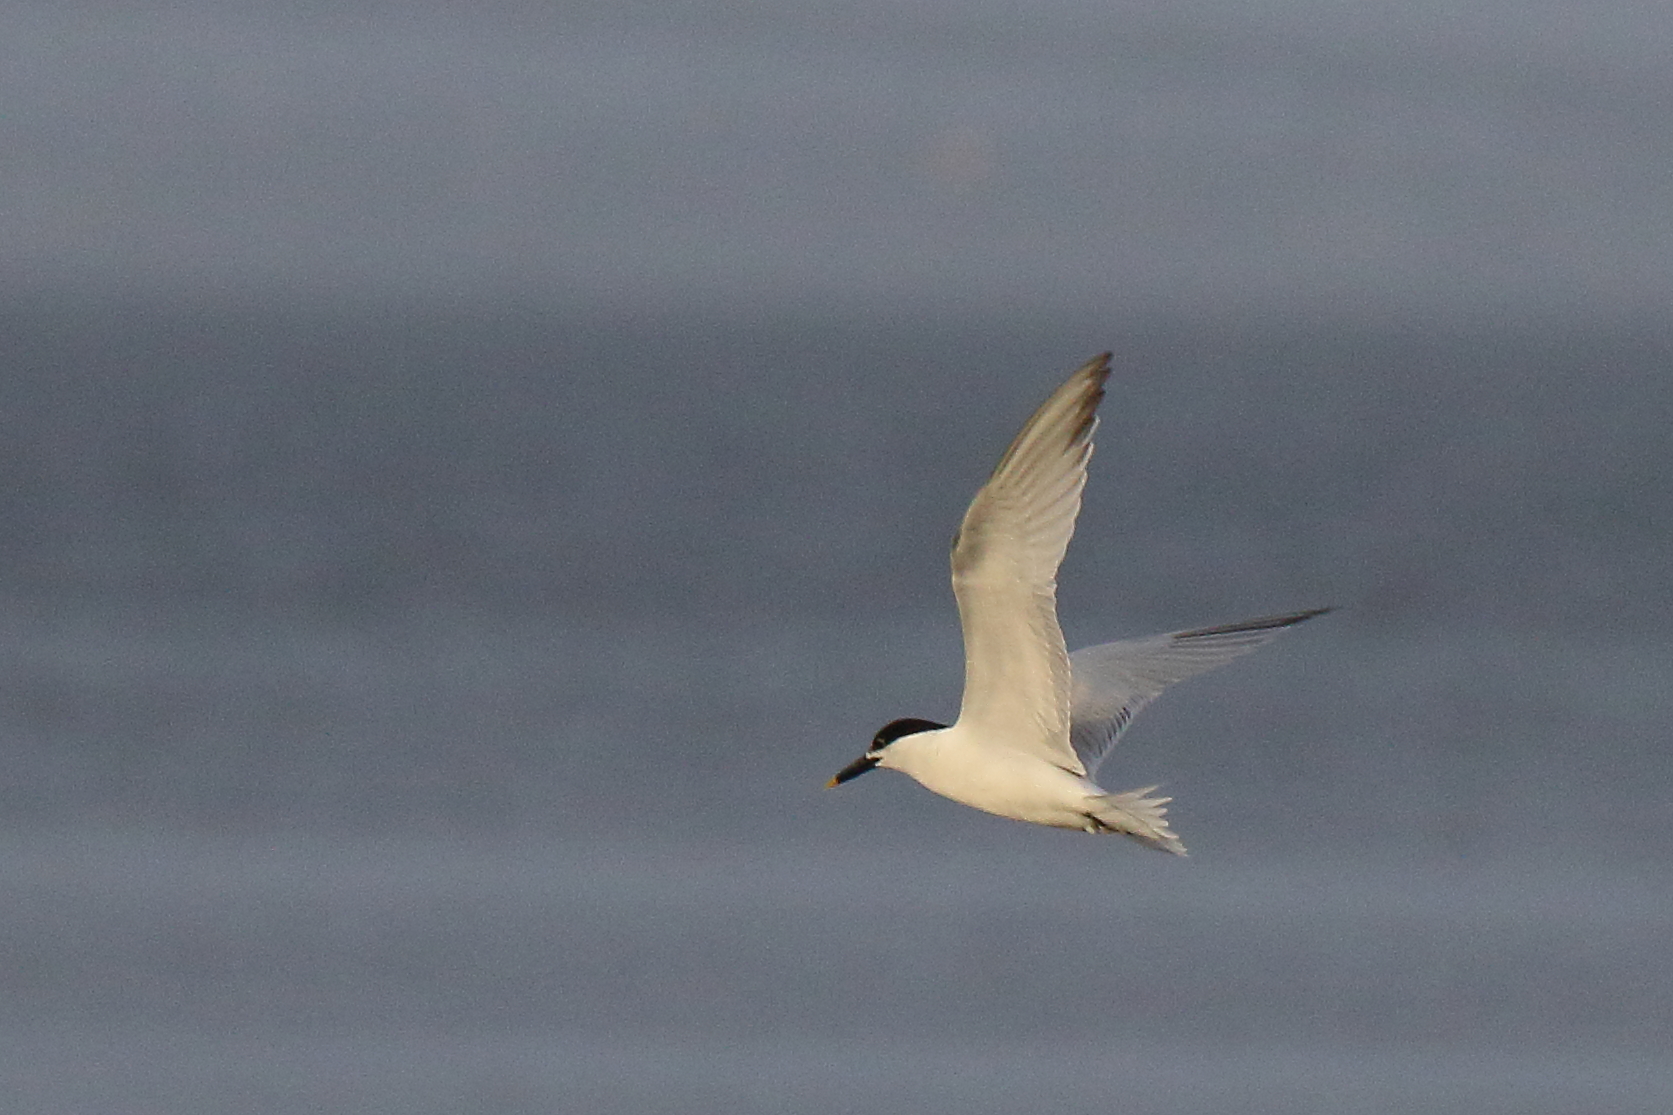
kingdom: Animalia
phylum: Chordata
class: Aves
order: Charadriiformes
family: Laridae
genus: Thalasseus
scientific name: Thalasseus sandvicensis
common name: Sandwich tern
